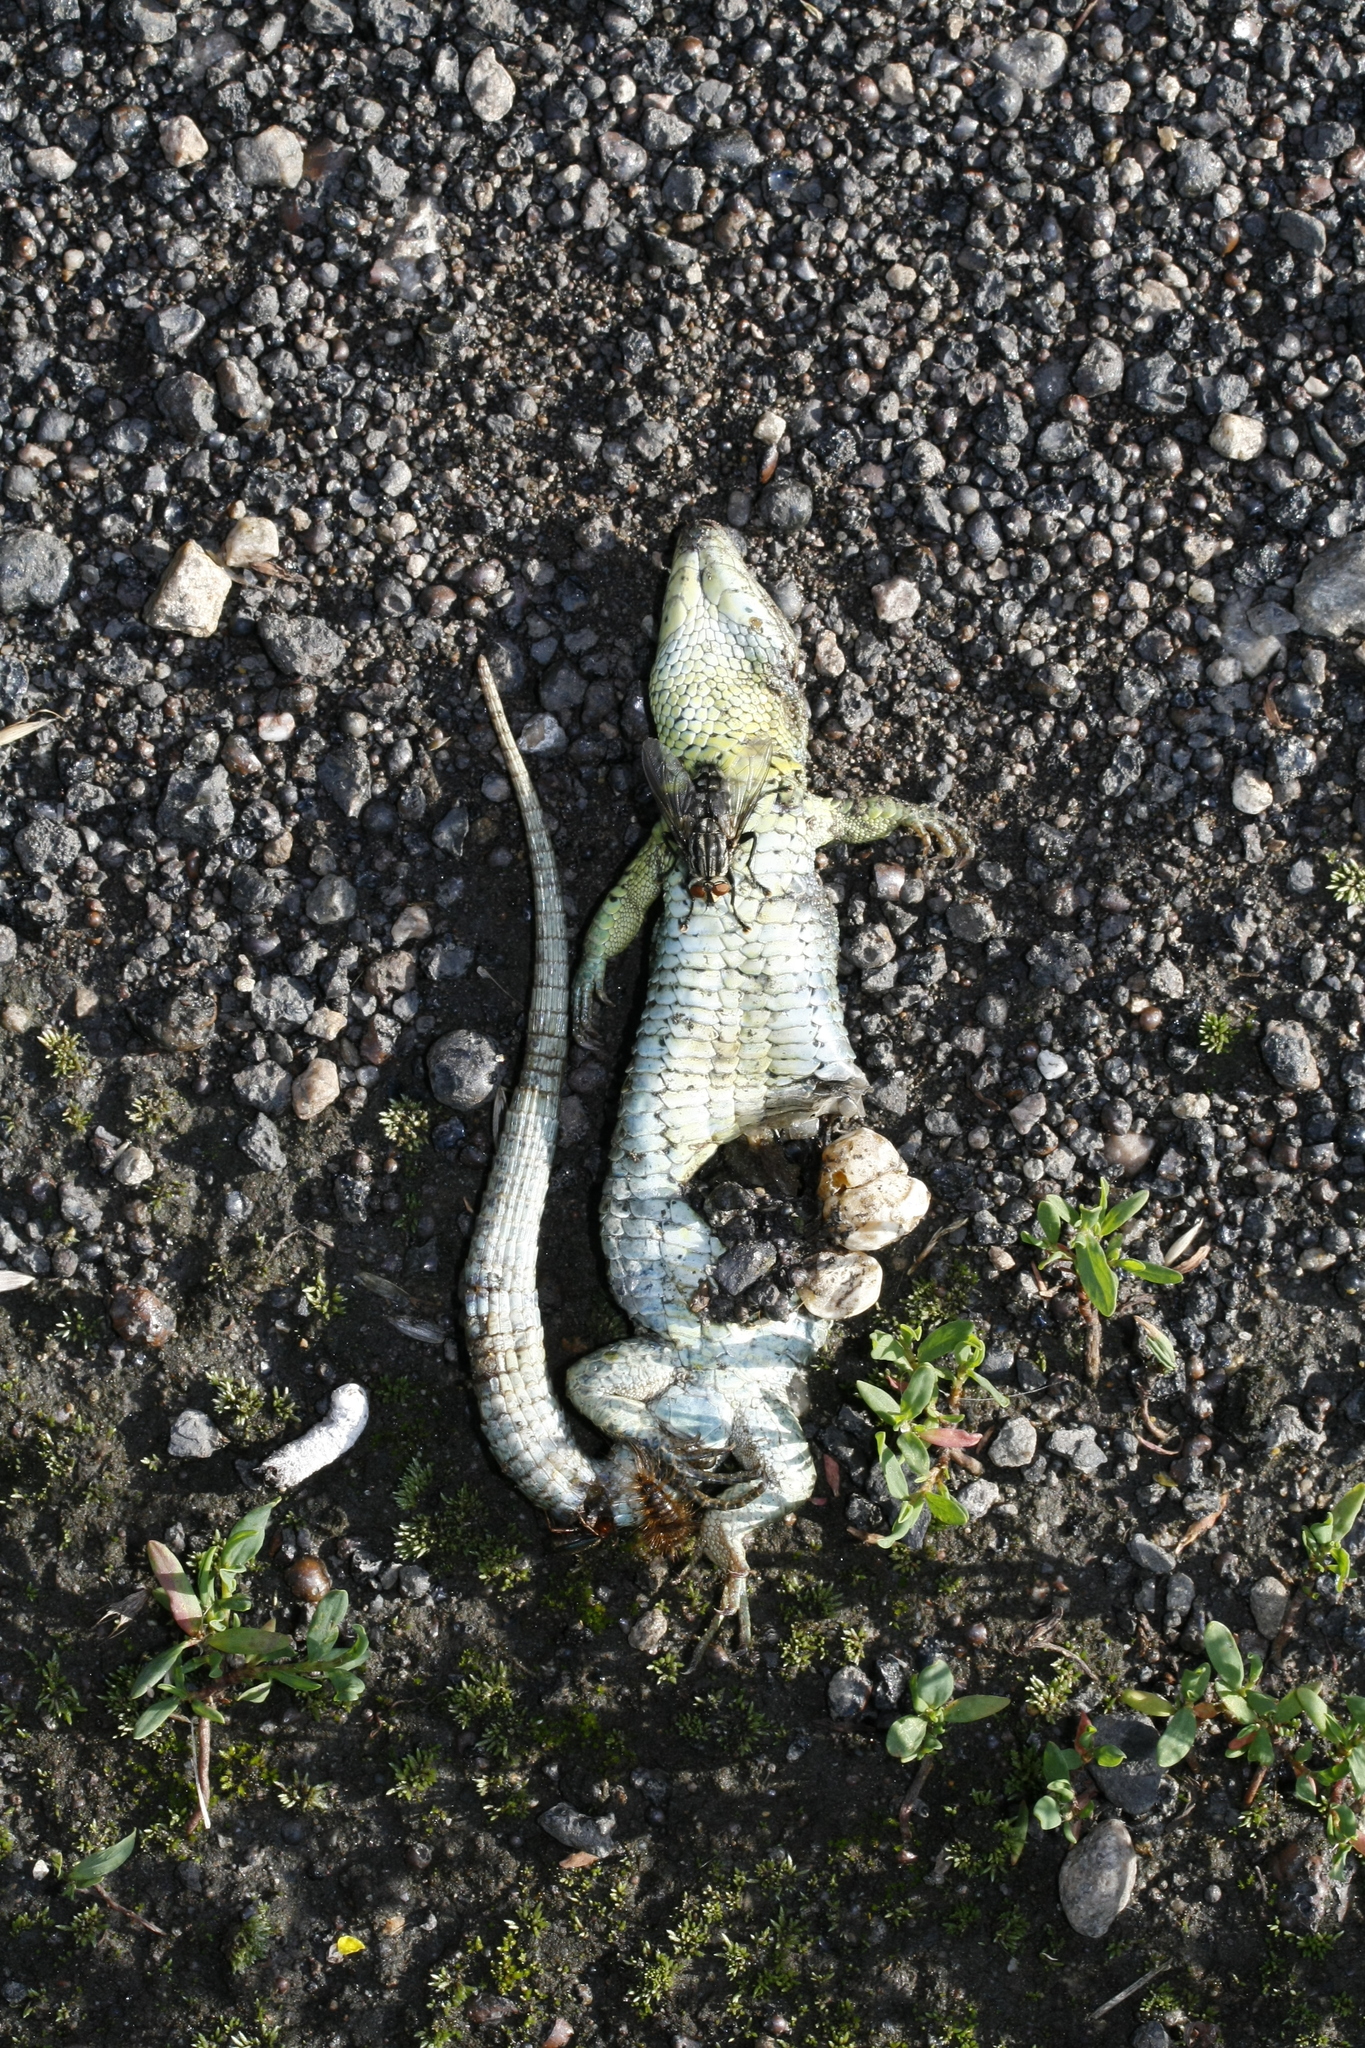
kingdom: Animalia
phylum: Chordata
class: Squamata
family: Lacertidae
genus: Lacerta
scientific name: Lacerta agilis
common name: Sand lizard
